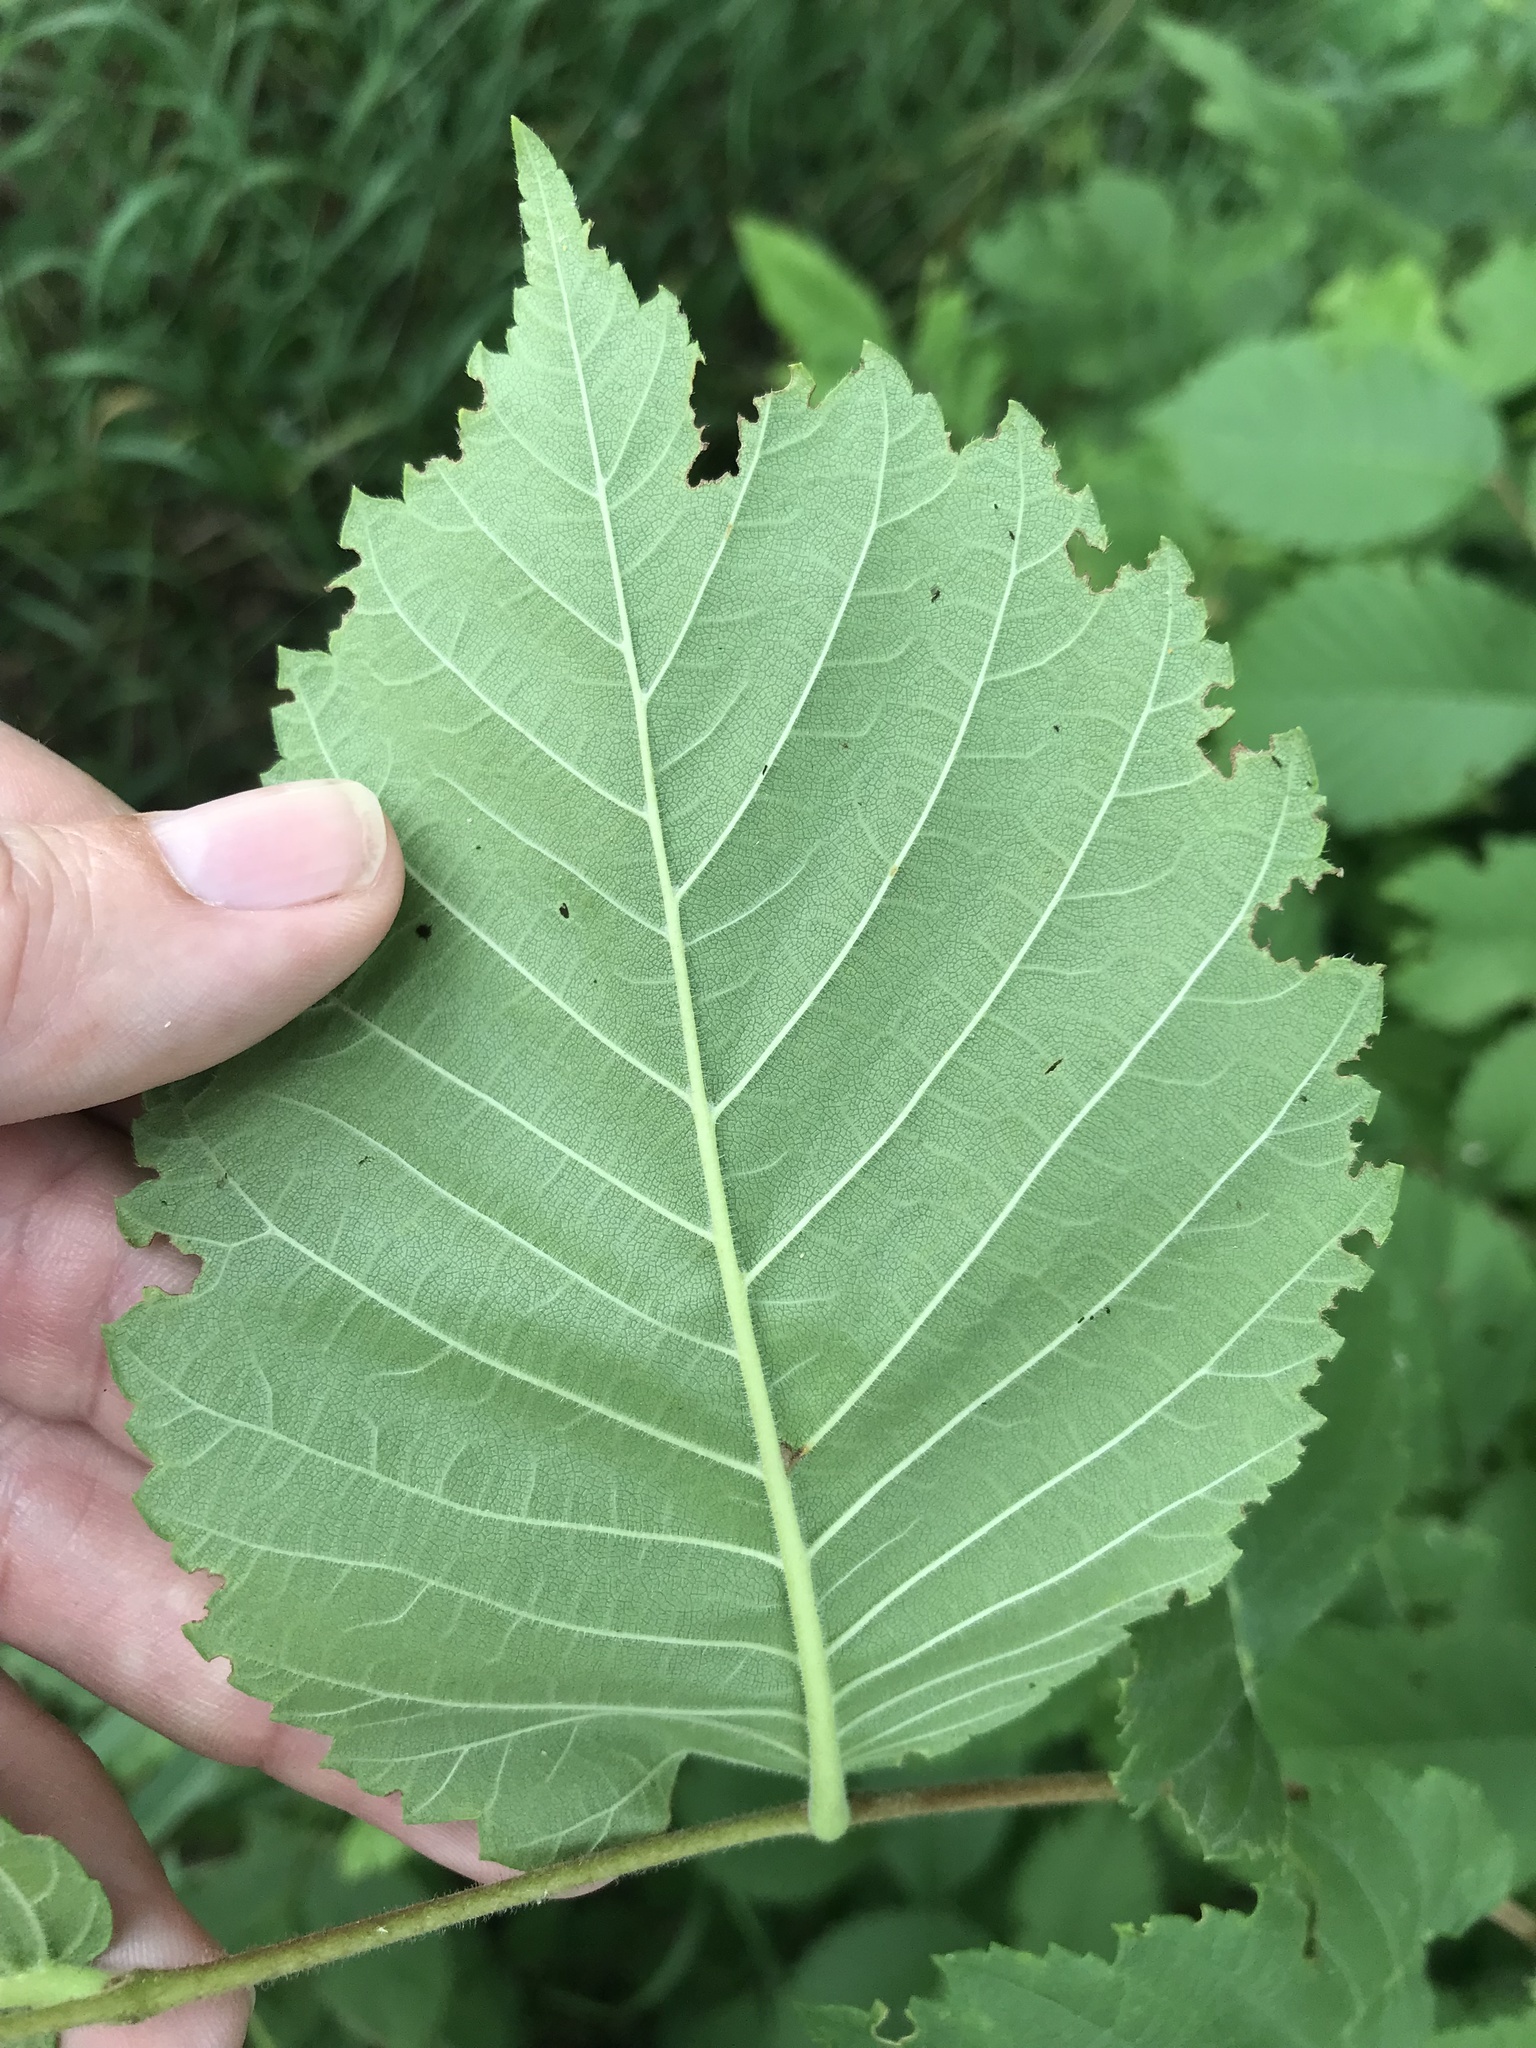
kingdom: Plantae
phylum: Tracheophyta
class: Magnoliopsida
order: Rosales
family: Ulmaceae
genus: Ulmus
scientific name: Ulmus americana
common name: American elm
